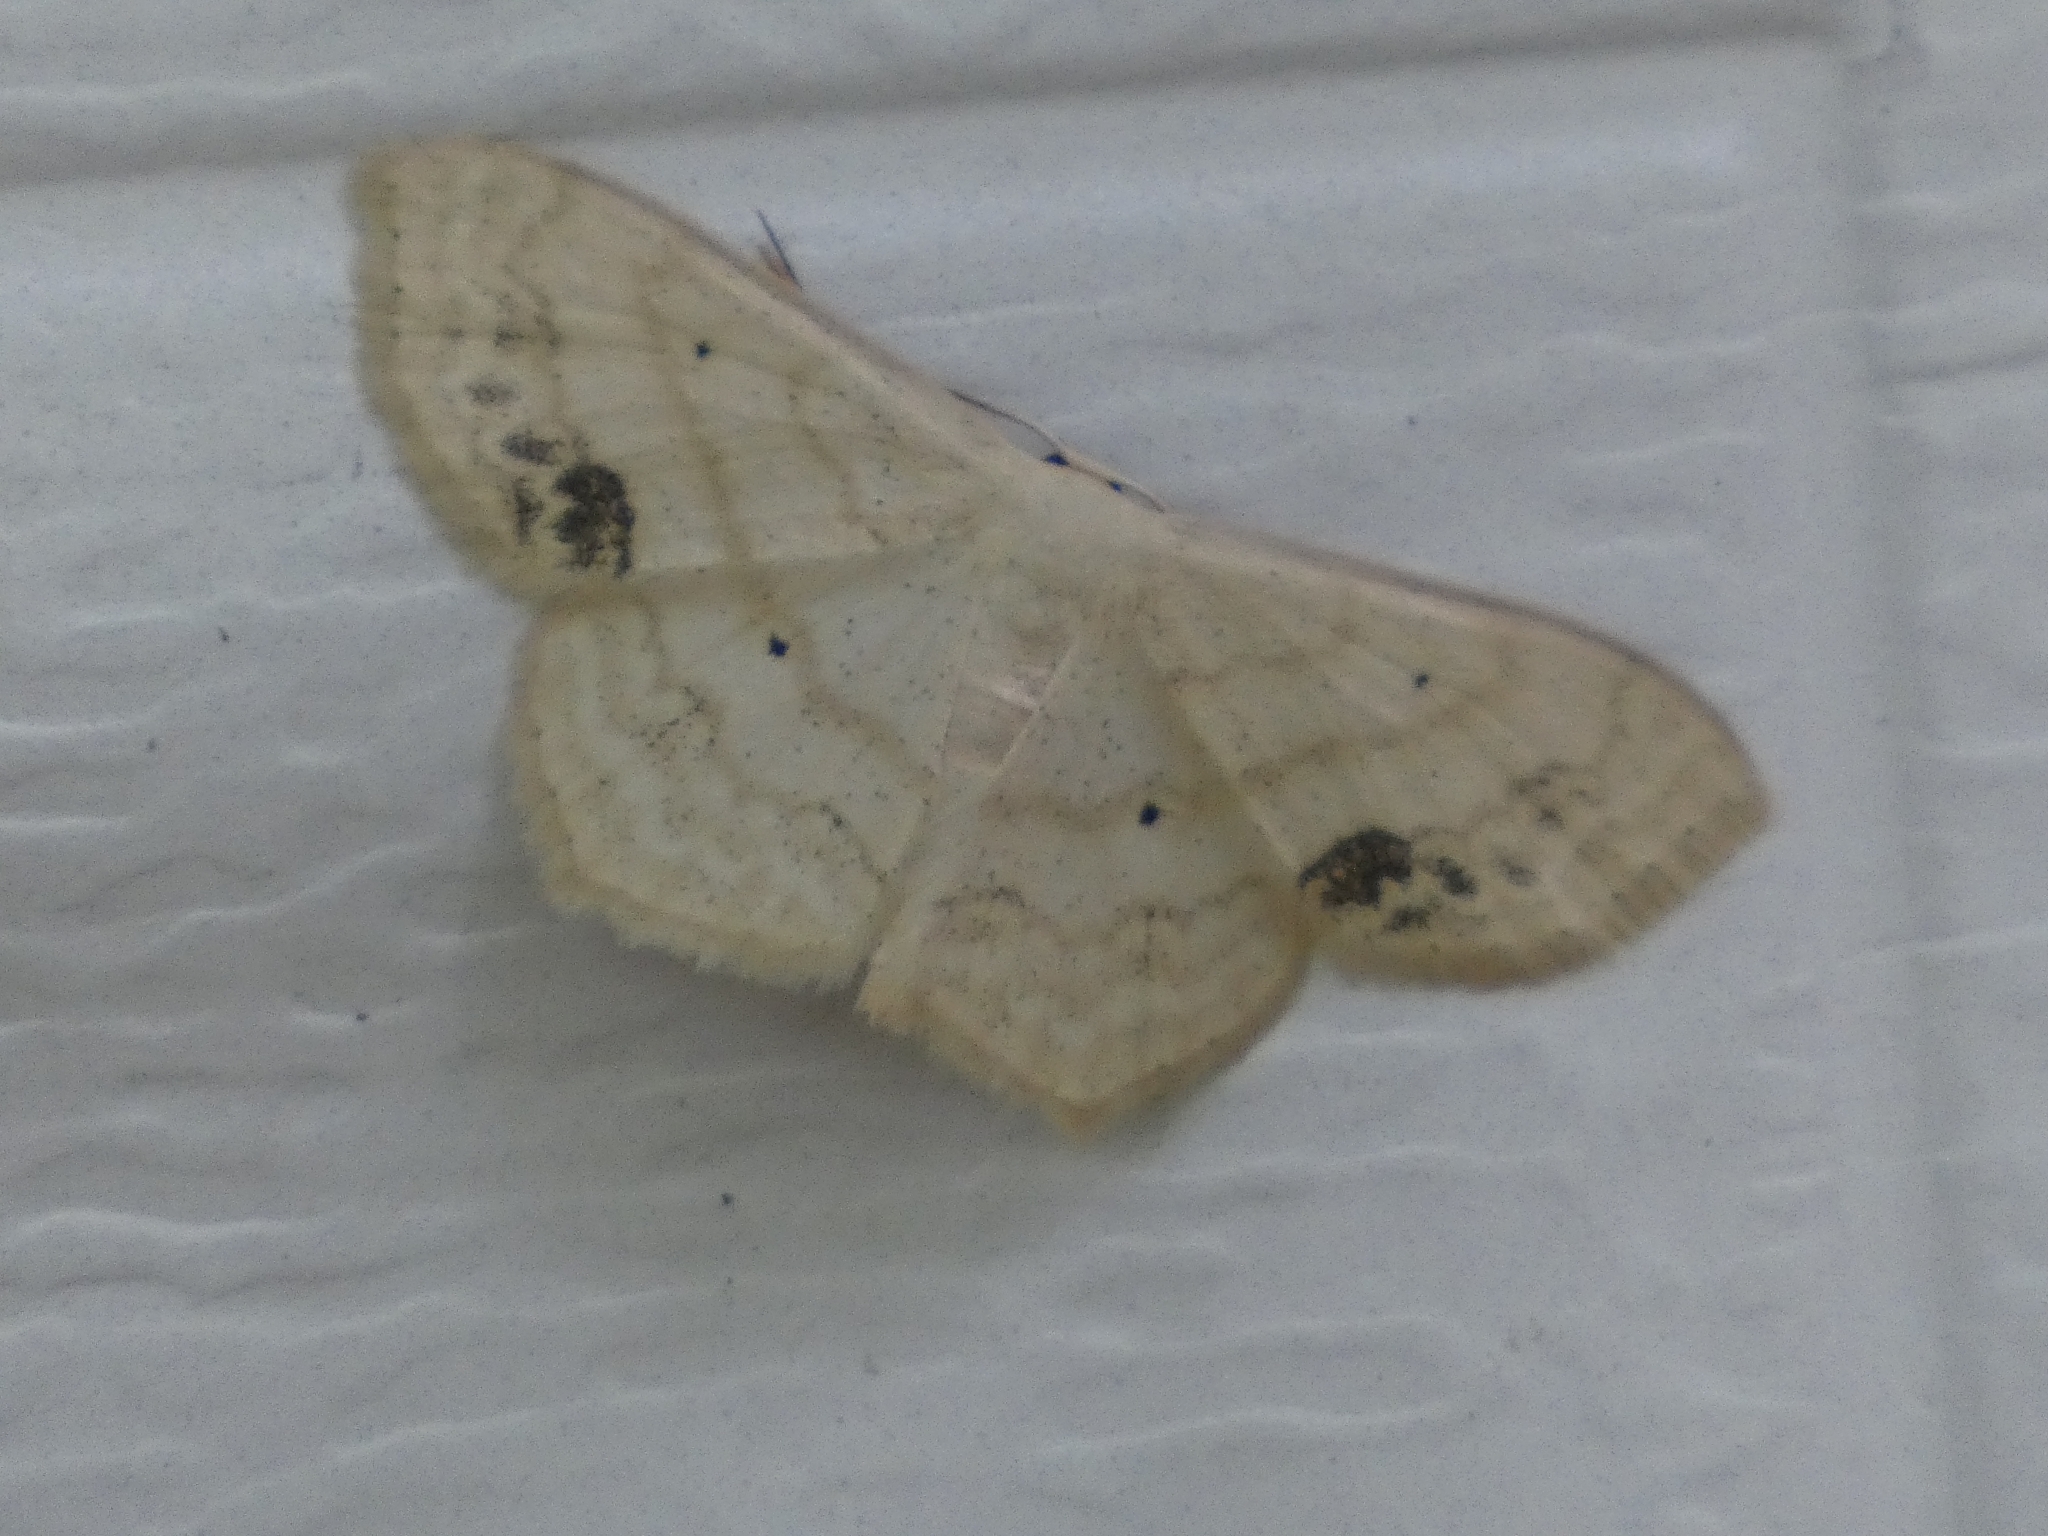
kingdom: Animalia
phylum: Arthropoda
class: Insecta
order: Lepidoptera
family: Geometridae
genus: Scopula
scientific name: Scopula limboundata
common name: Large lace border
